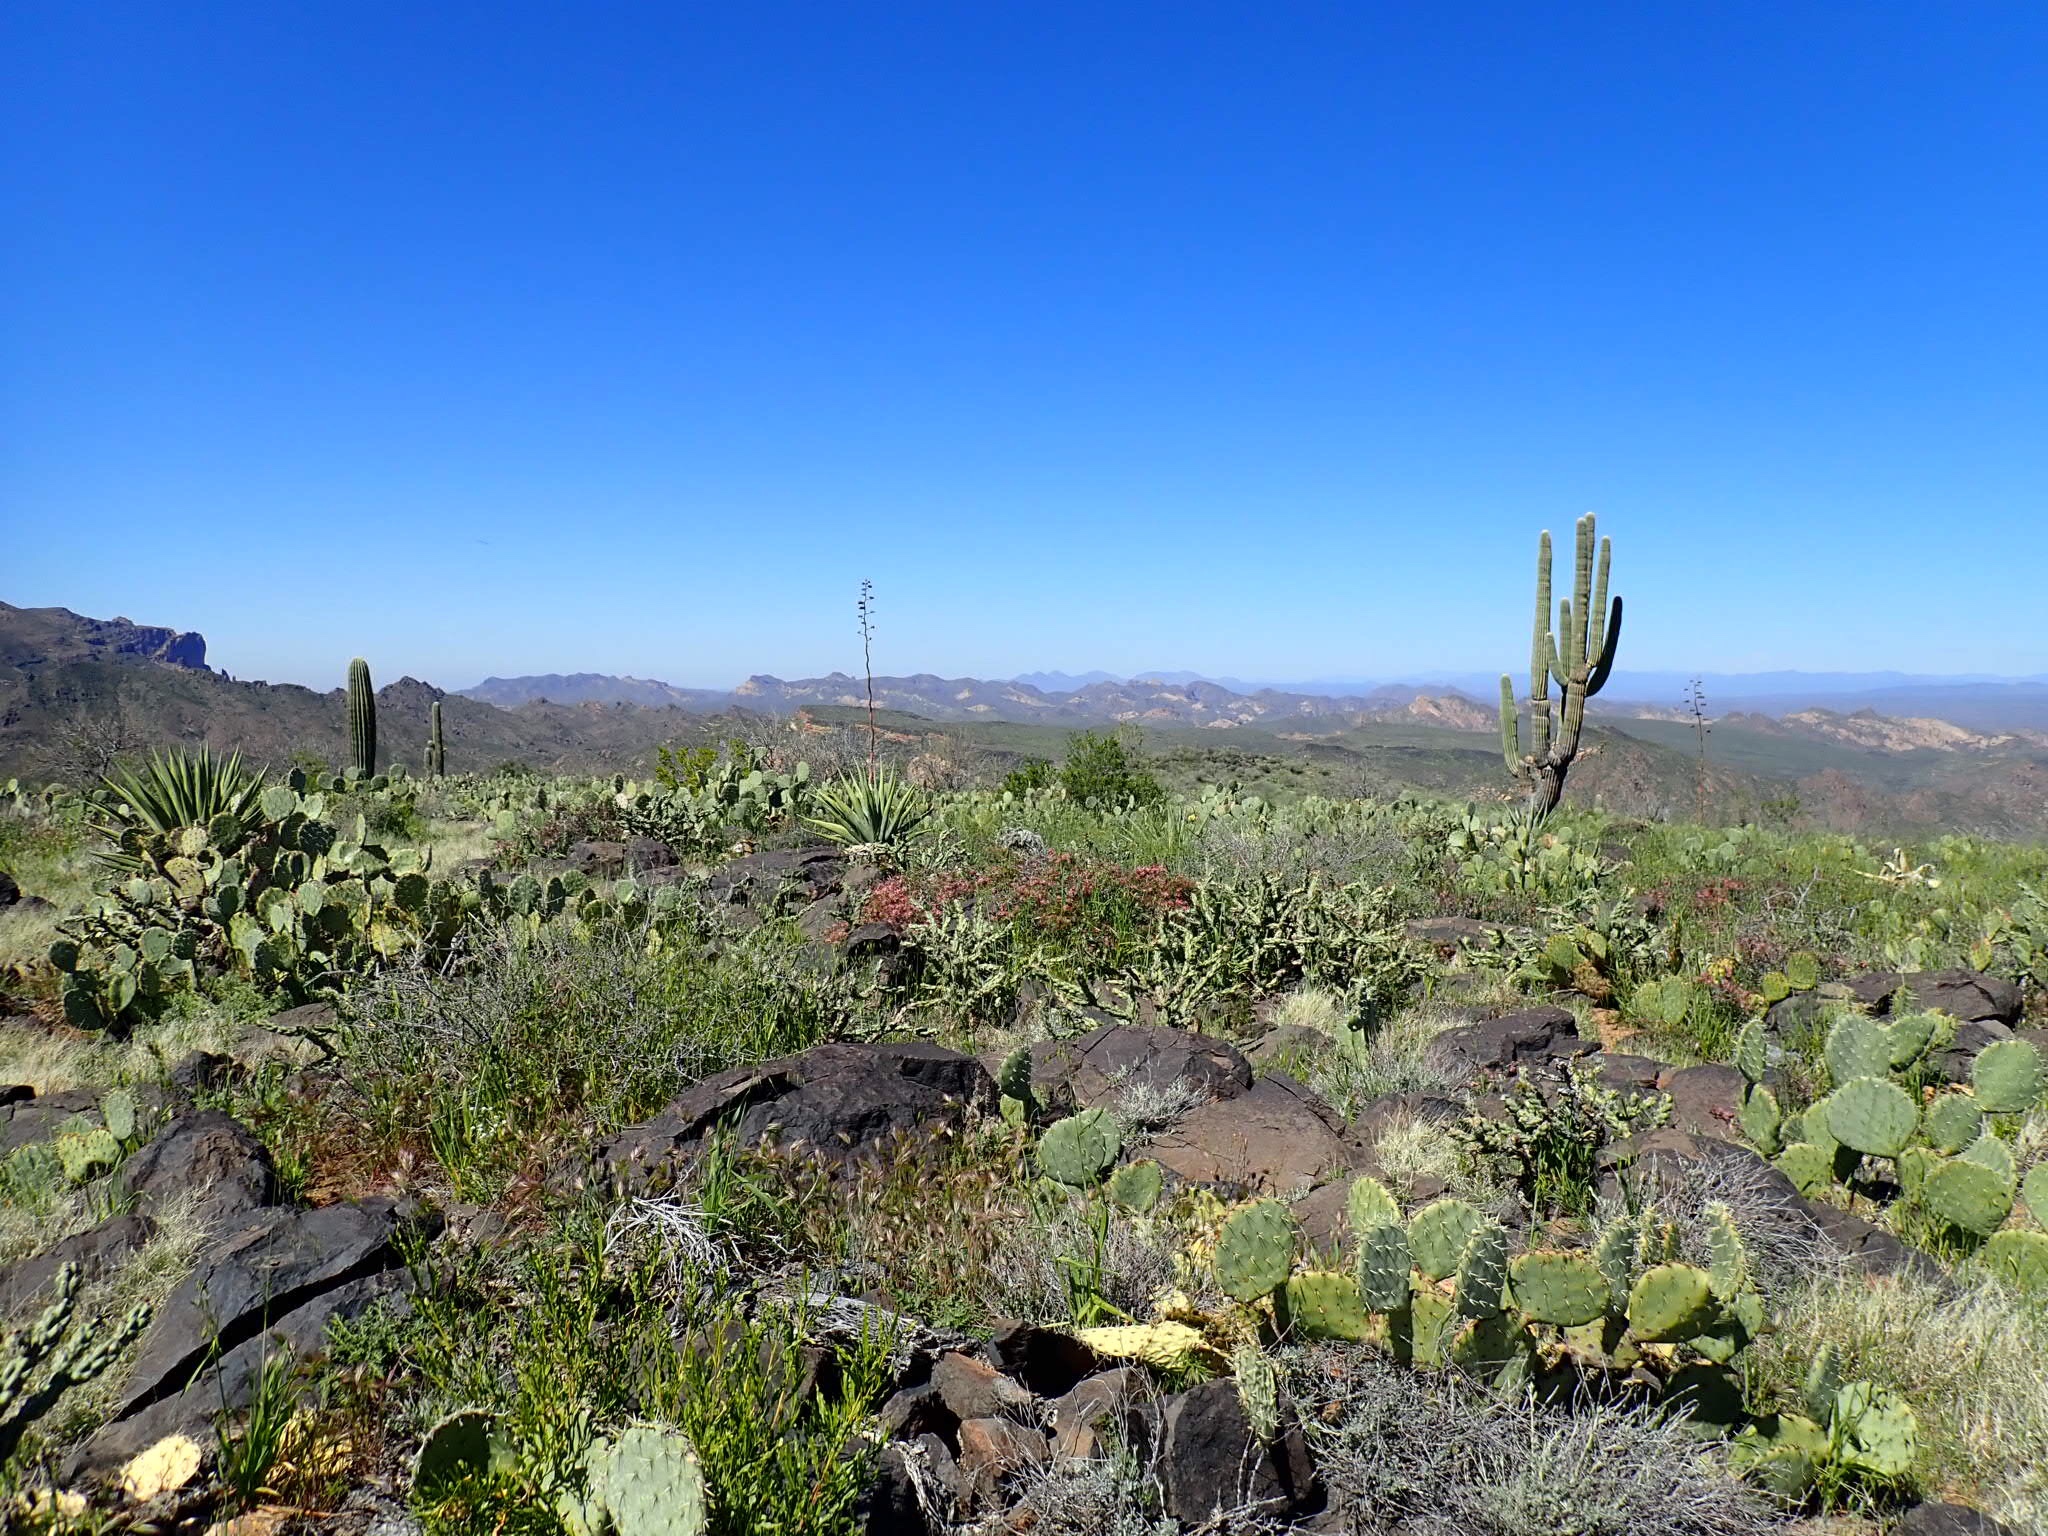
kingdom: Plantae
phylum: Tracheophyta
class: Magnoliopsida
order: Caryophyllales
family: Cactaceae
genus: Carnegiea
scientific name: Carnegiea gigantea
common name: Saguaro
